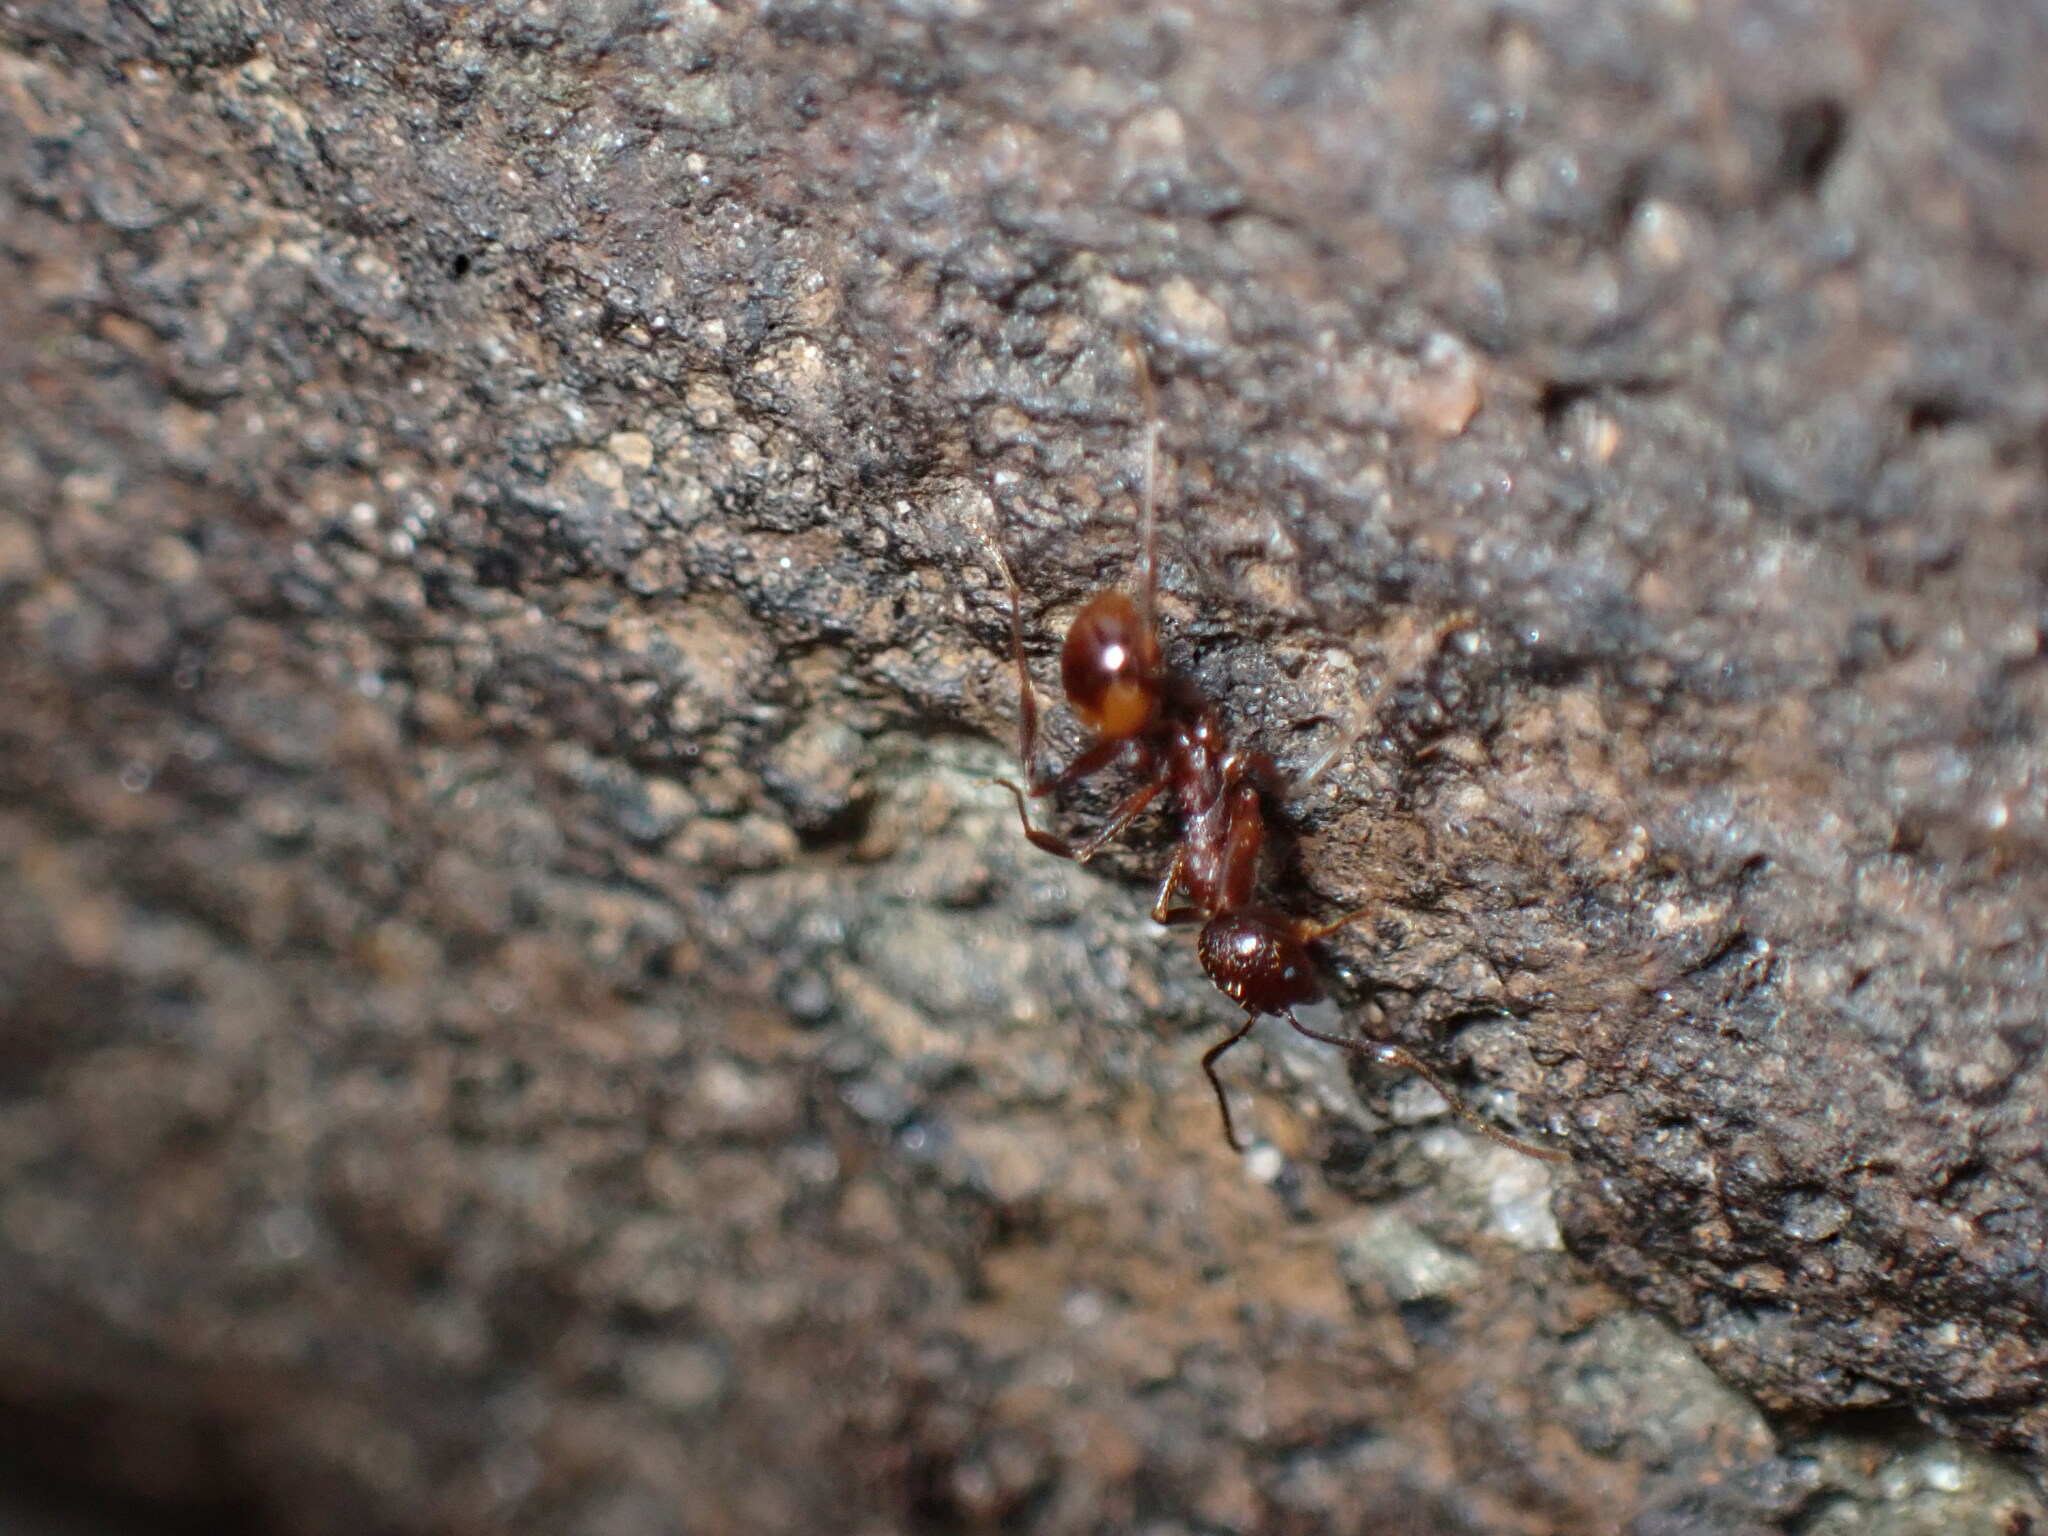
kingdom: Animalia
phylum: Arthropoda
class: Insecta
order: Hymenoptera
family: Formicidae
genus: Aphaenogaster
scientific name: Aphaenogaster fulva
